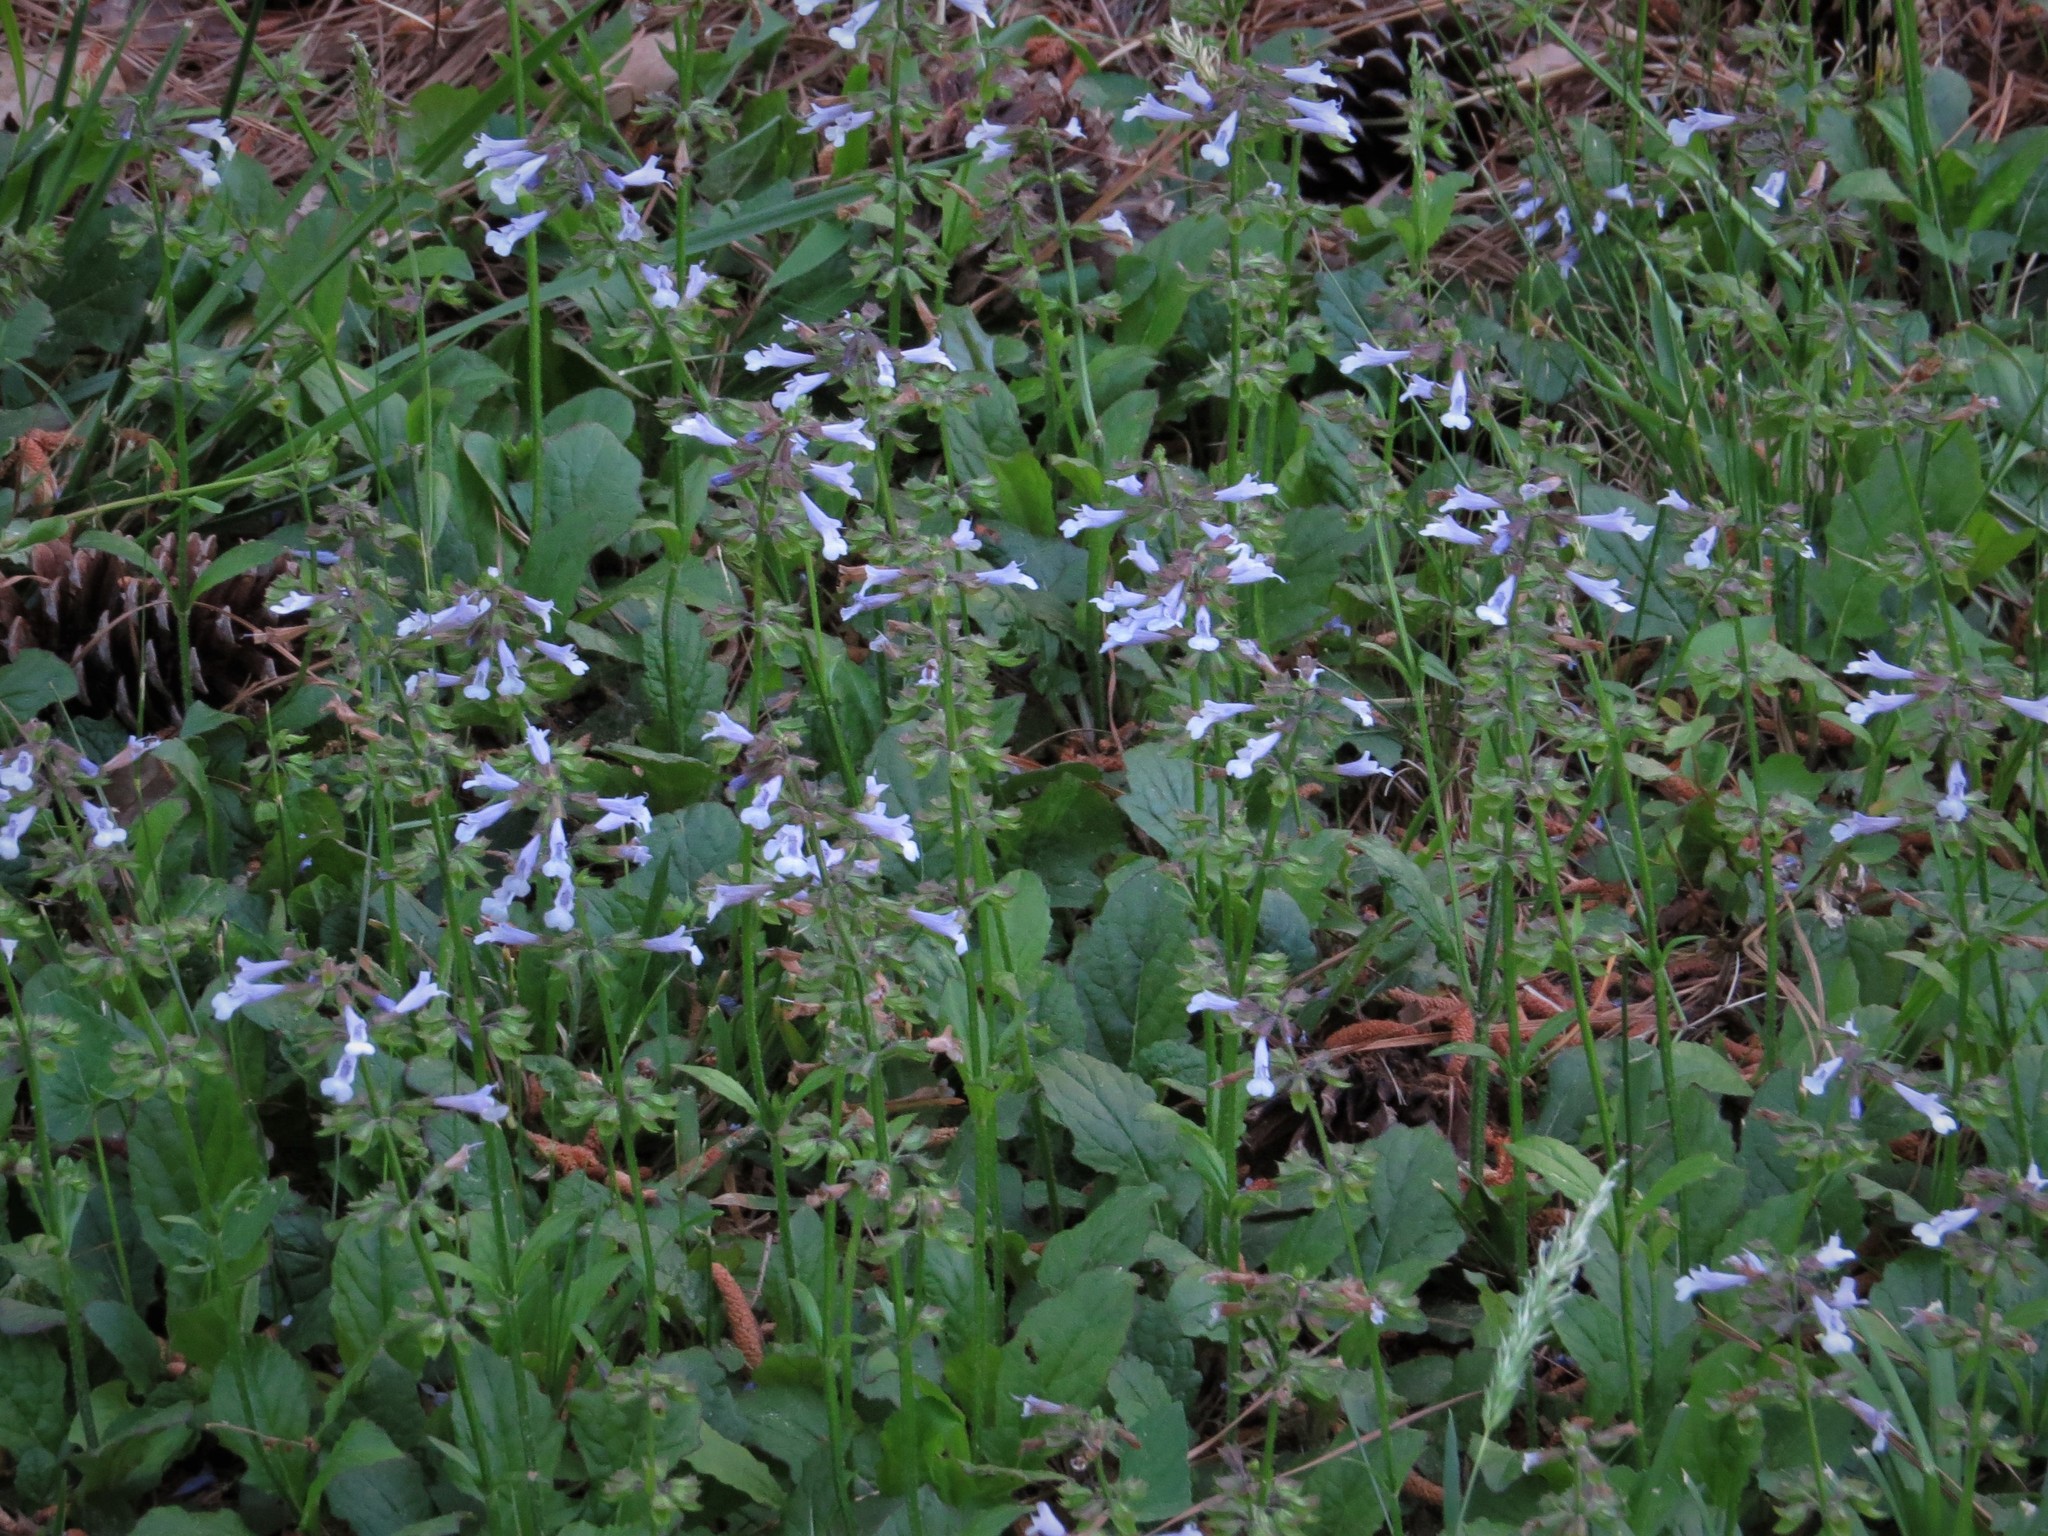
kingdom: Plantae
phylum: Tracheophyta
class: Magnoliopsida
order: Lamiales
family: Lamiaceae
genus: Salvia
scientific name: Salvia lyrata
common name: Cancerweed
